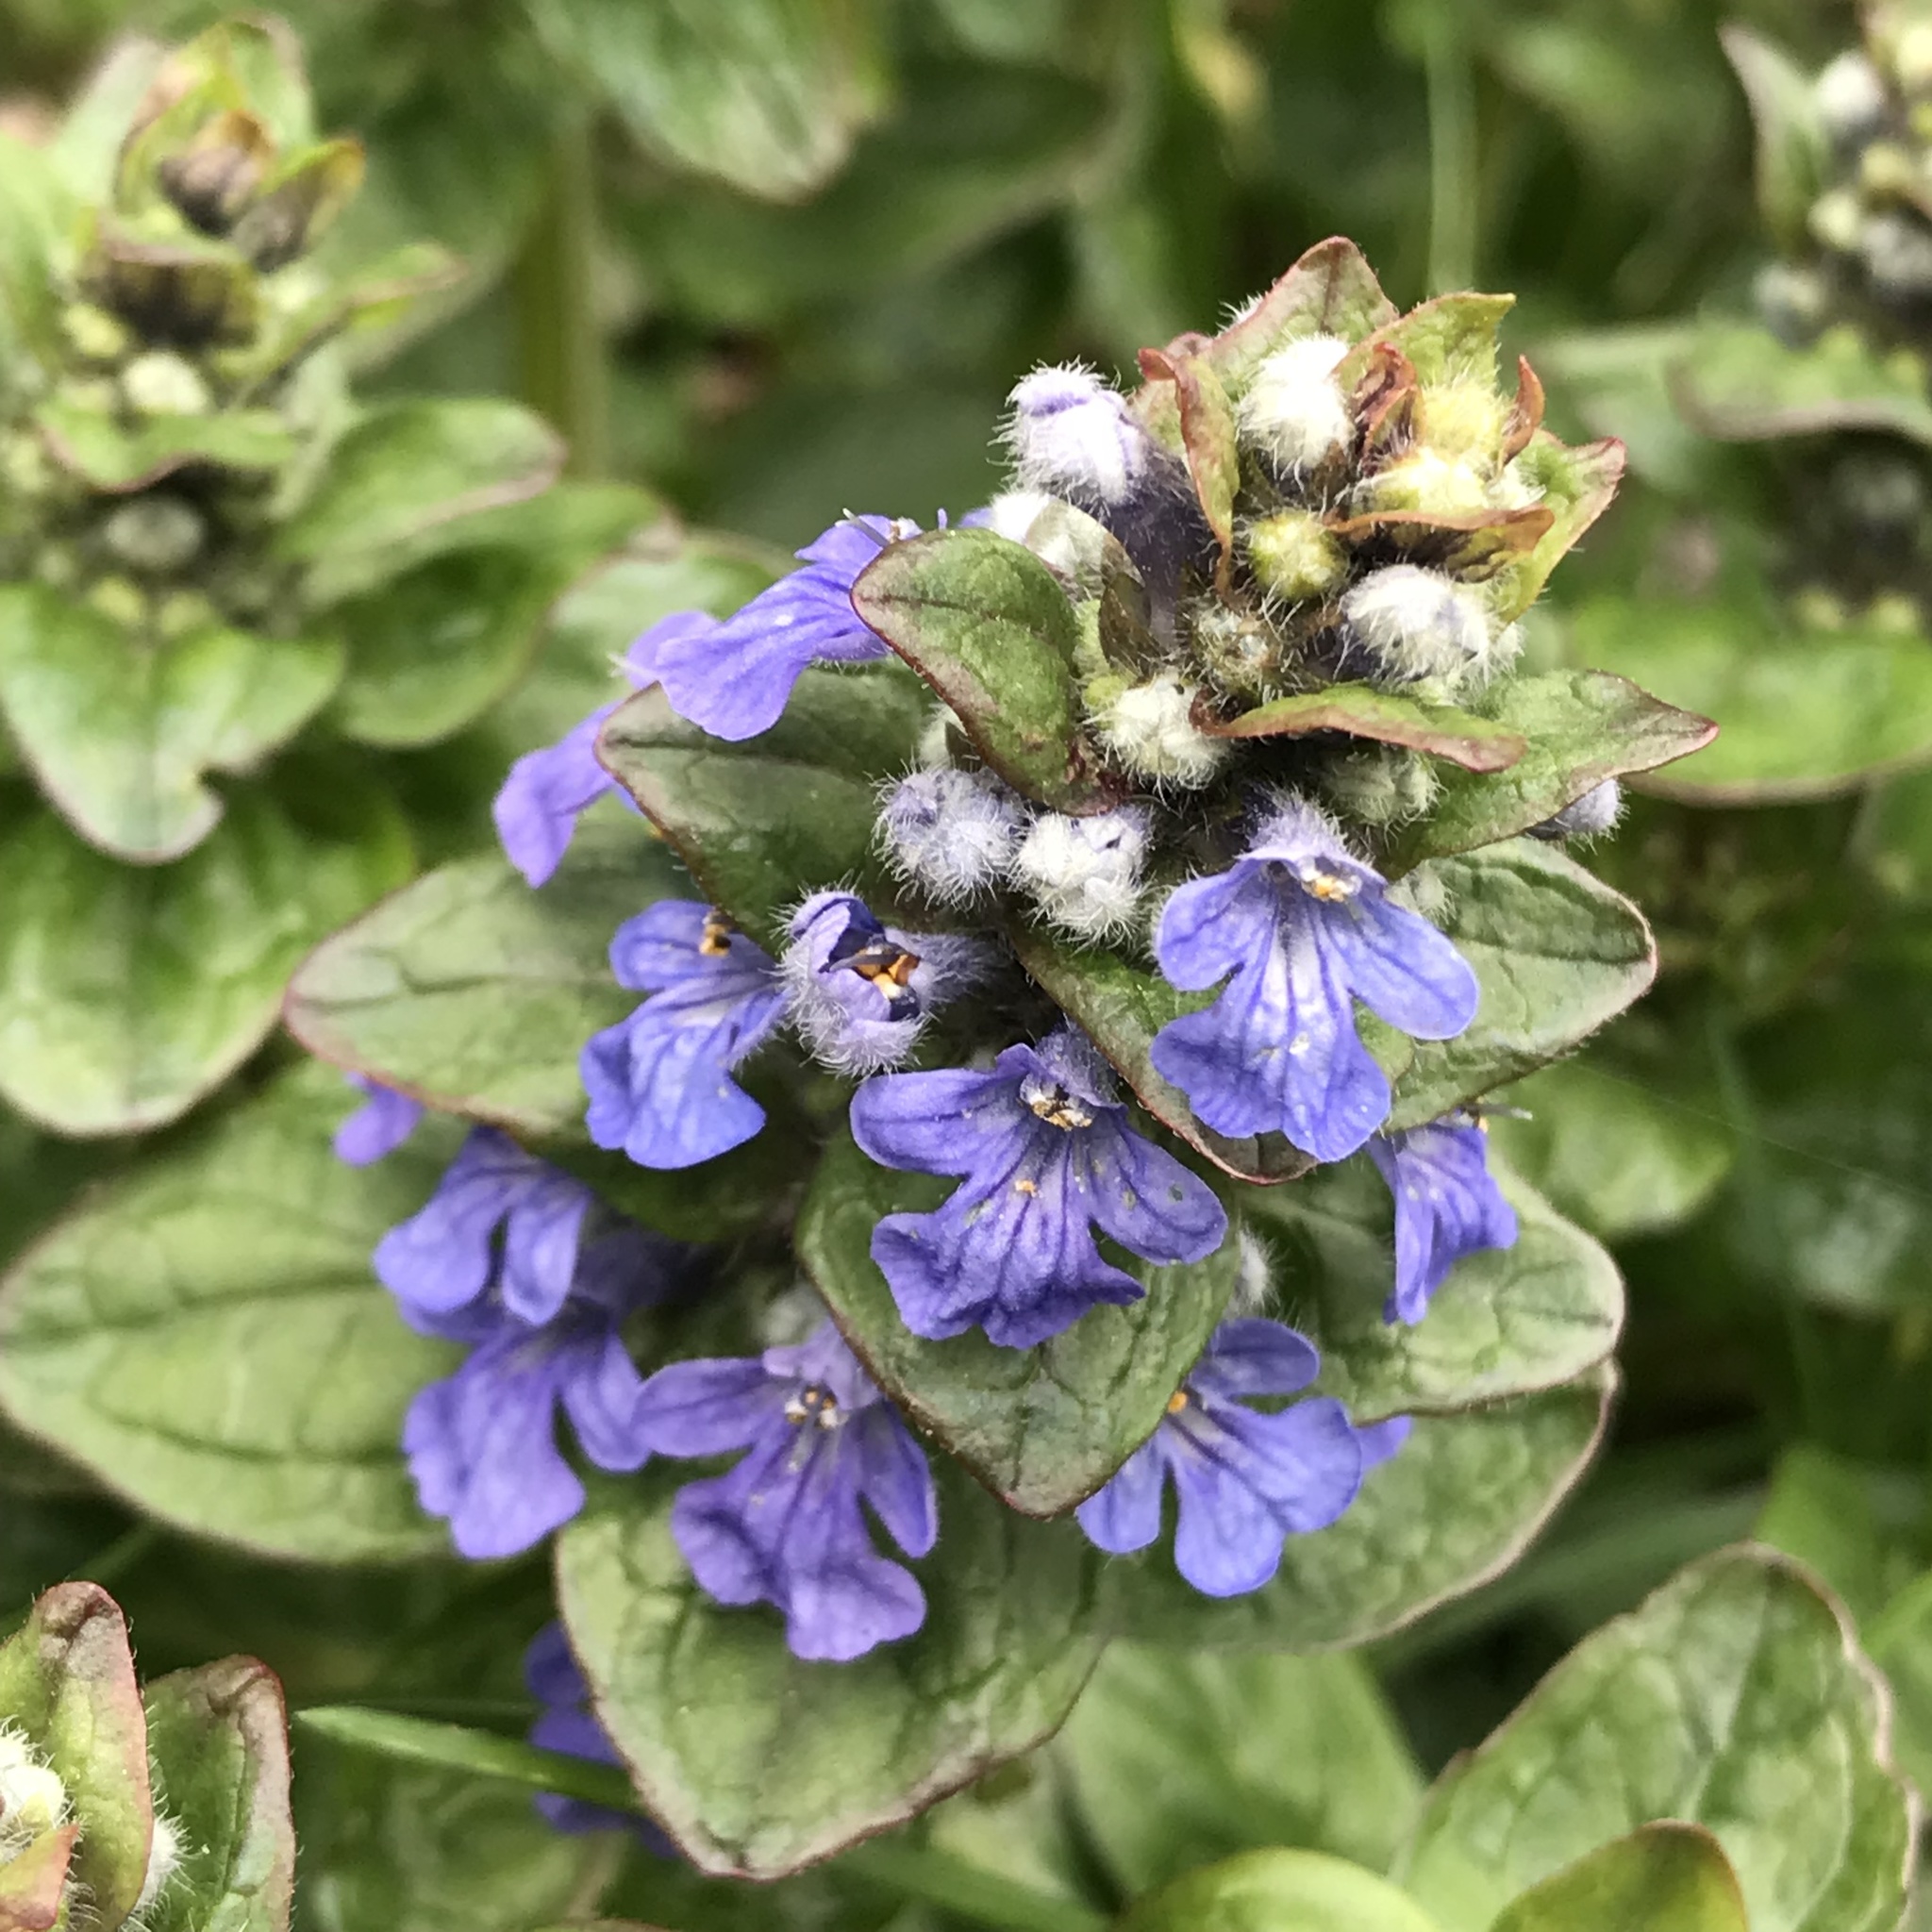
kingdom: Plantae
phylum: Tracheophyta
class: Magnoliopsida
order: Lamiales
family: Lamiaceae
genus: Ajuga
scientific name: Ajuga reptans
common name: Bugle
